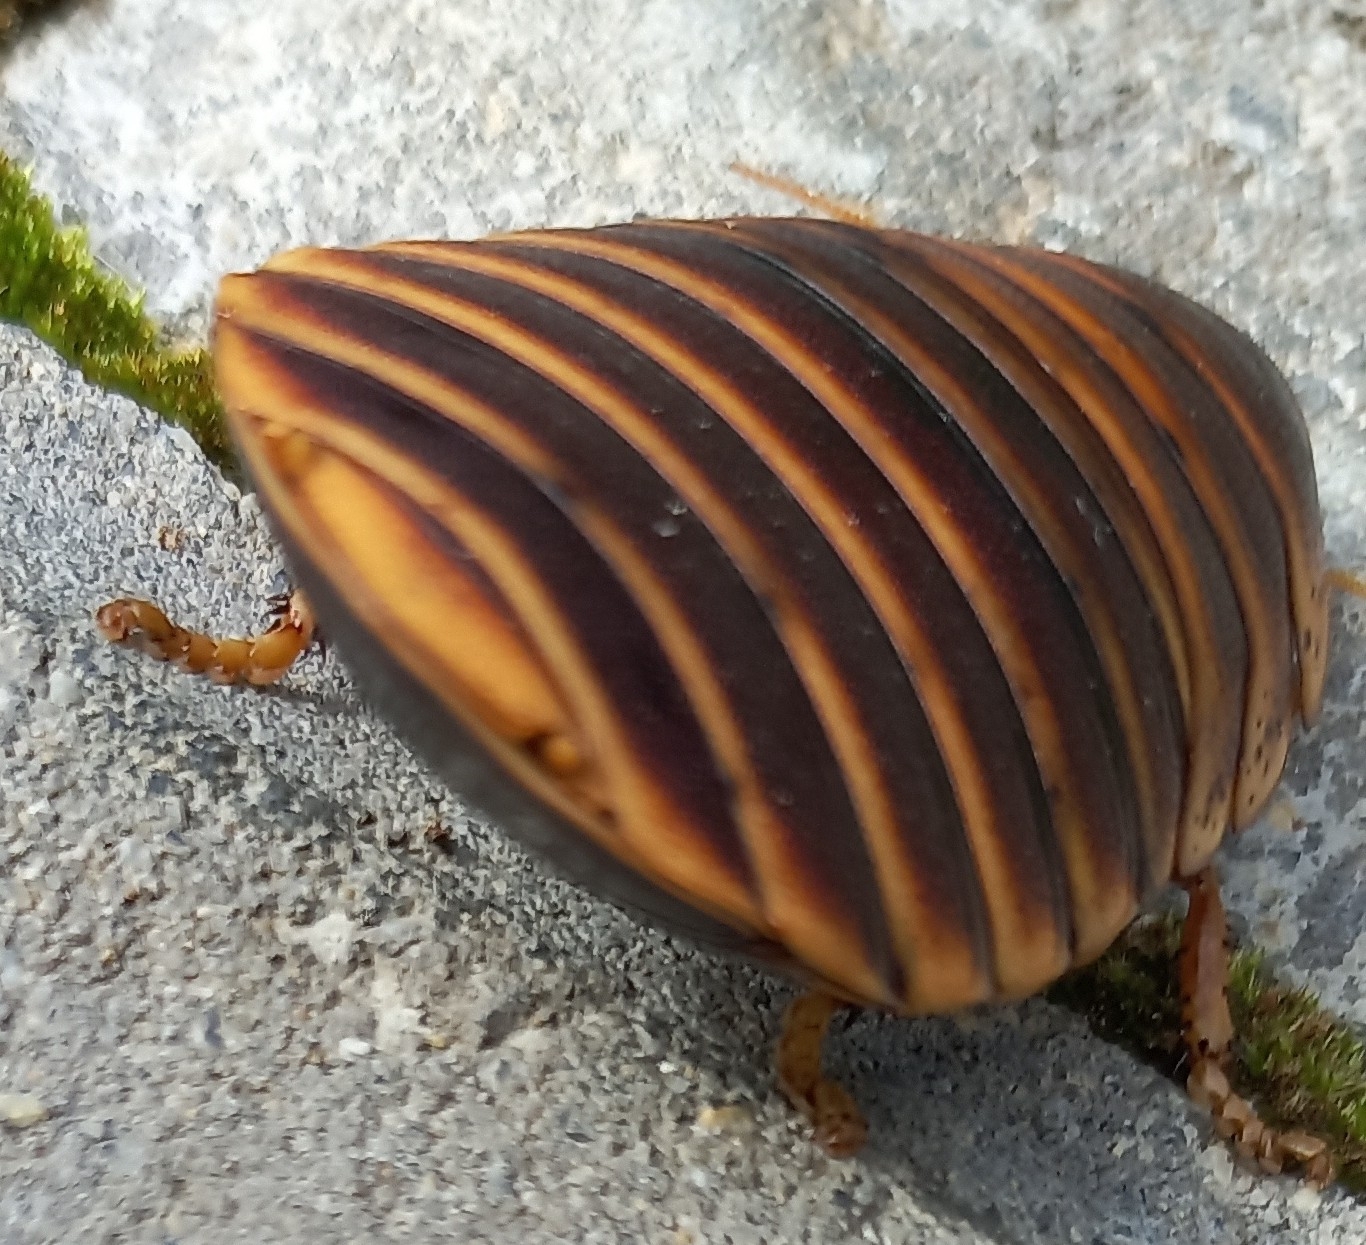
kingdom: Animalia
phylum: Arthropoda
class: Insecta
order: Blattodea
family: Blaberidae
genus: Aptera
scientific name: Aptera fusca
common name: Cape mountain cockroach
